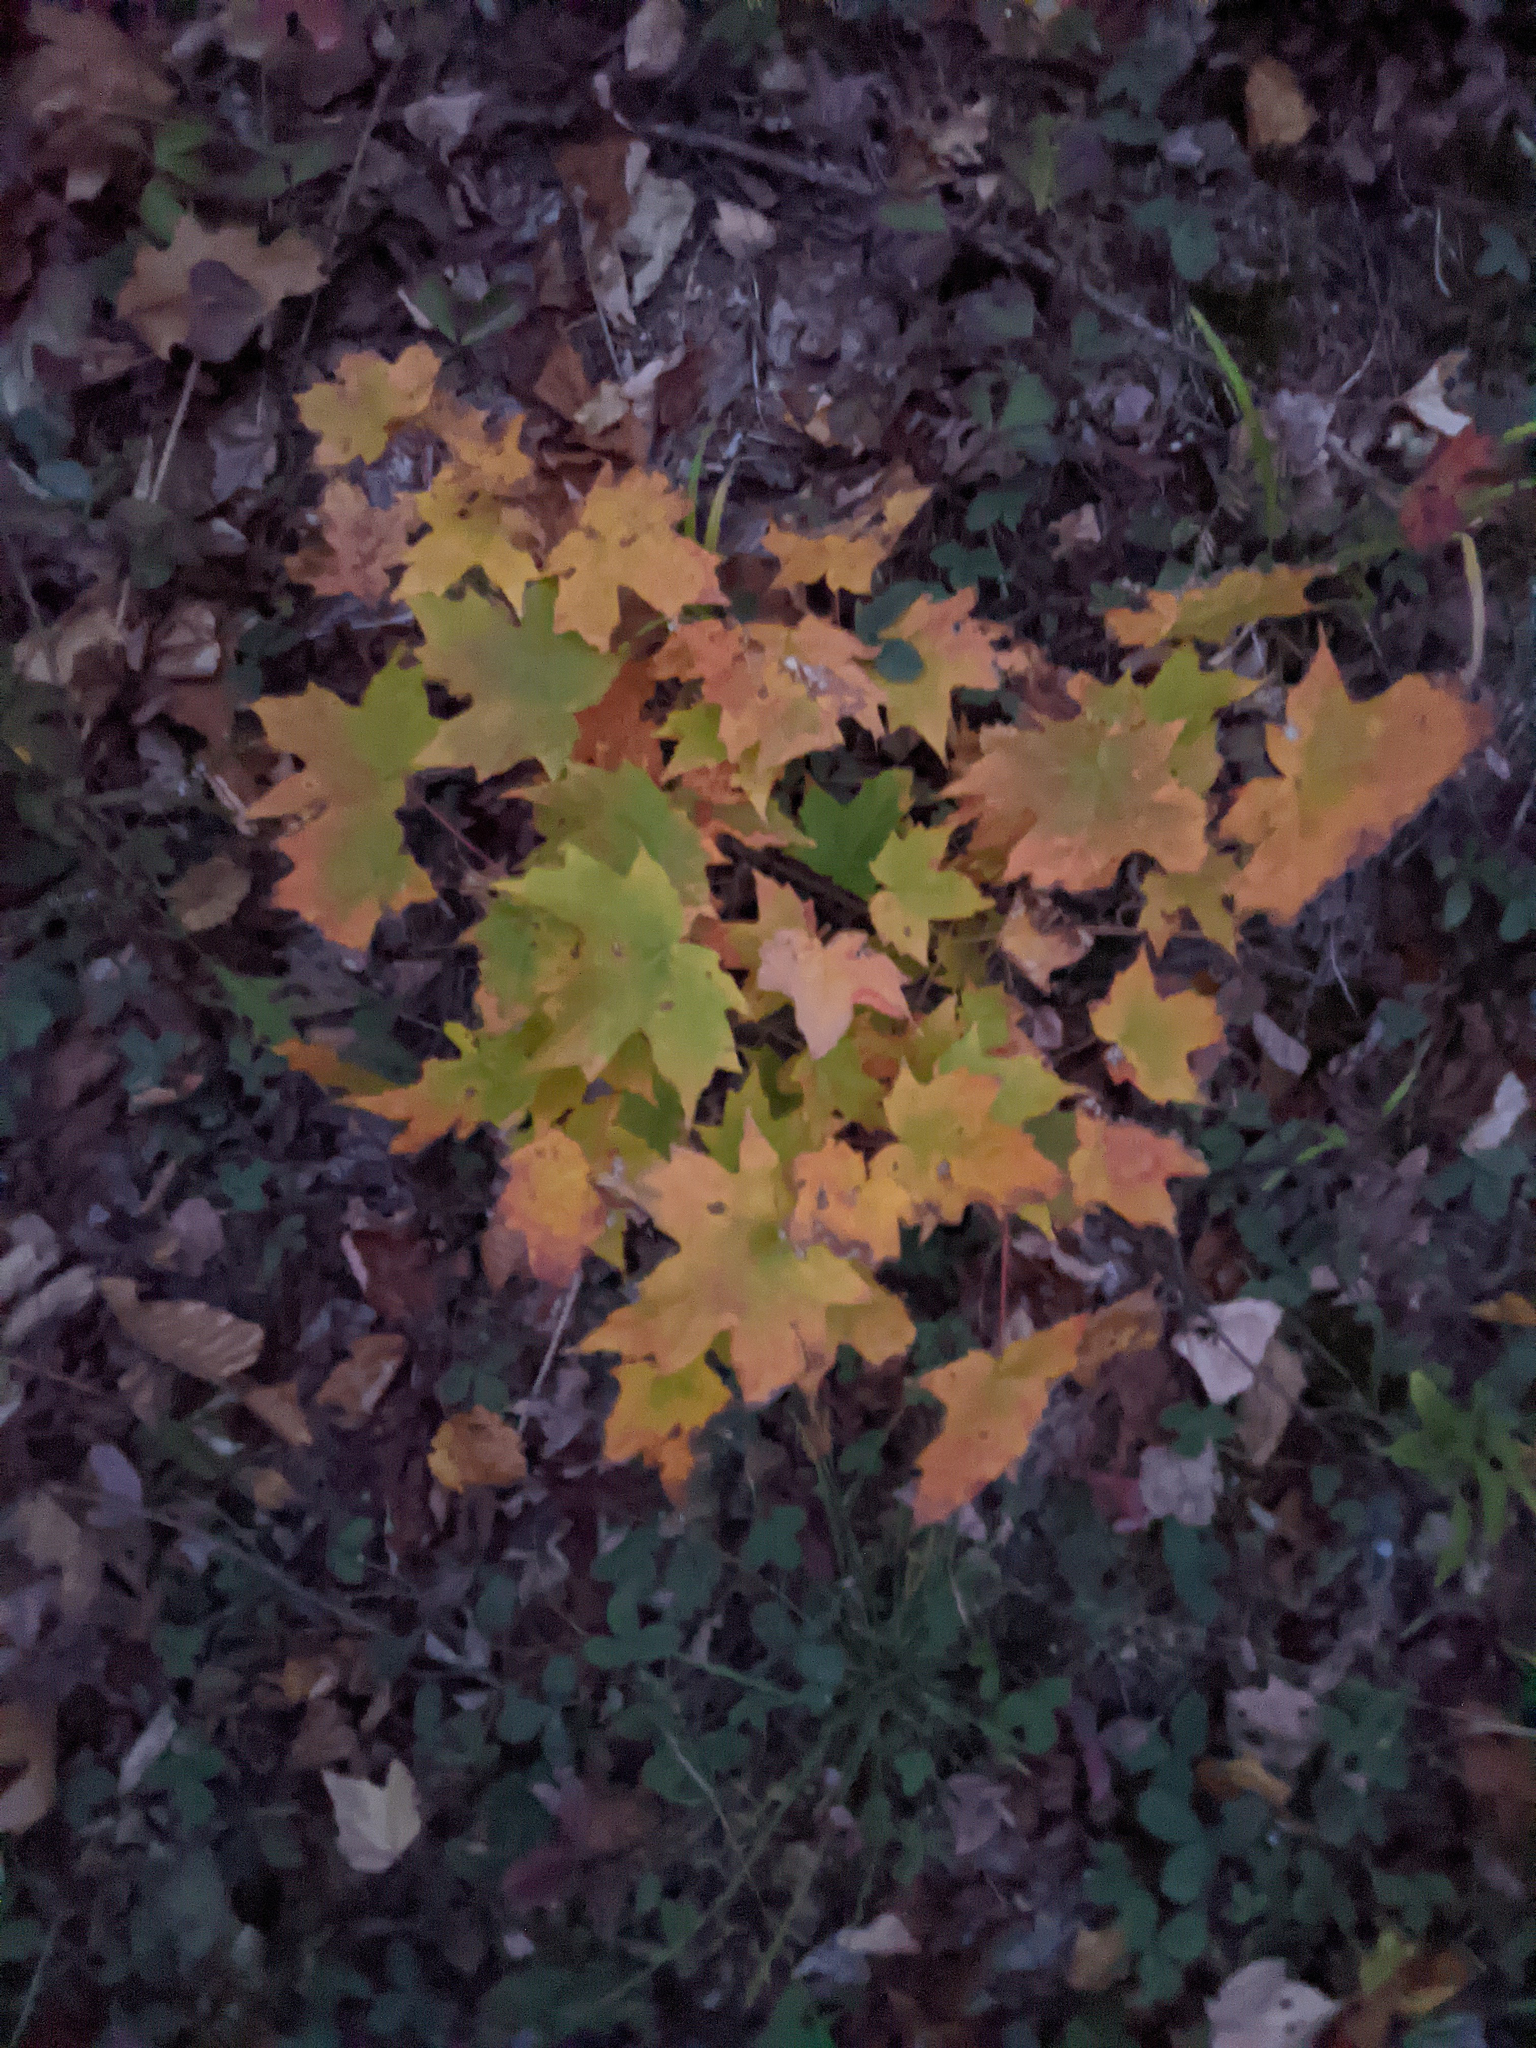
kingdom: Plantae
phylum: Tracheophyta
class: Magnoliopsida
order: Sapindales
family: Sapindaceae
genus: Acer
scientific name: Acer saccharum
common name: Sugar maple
